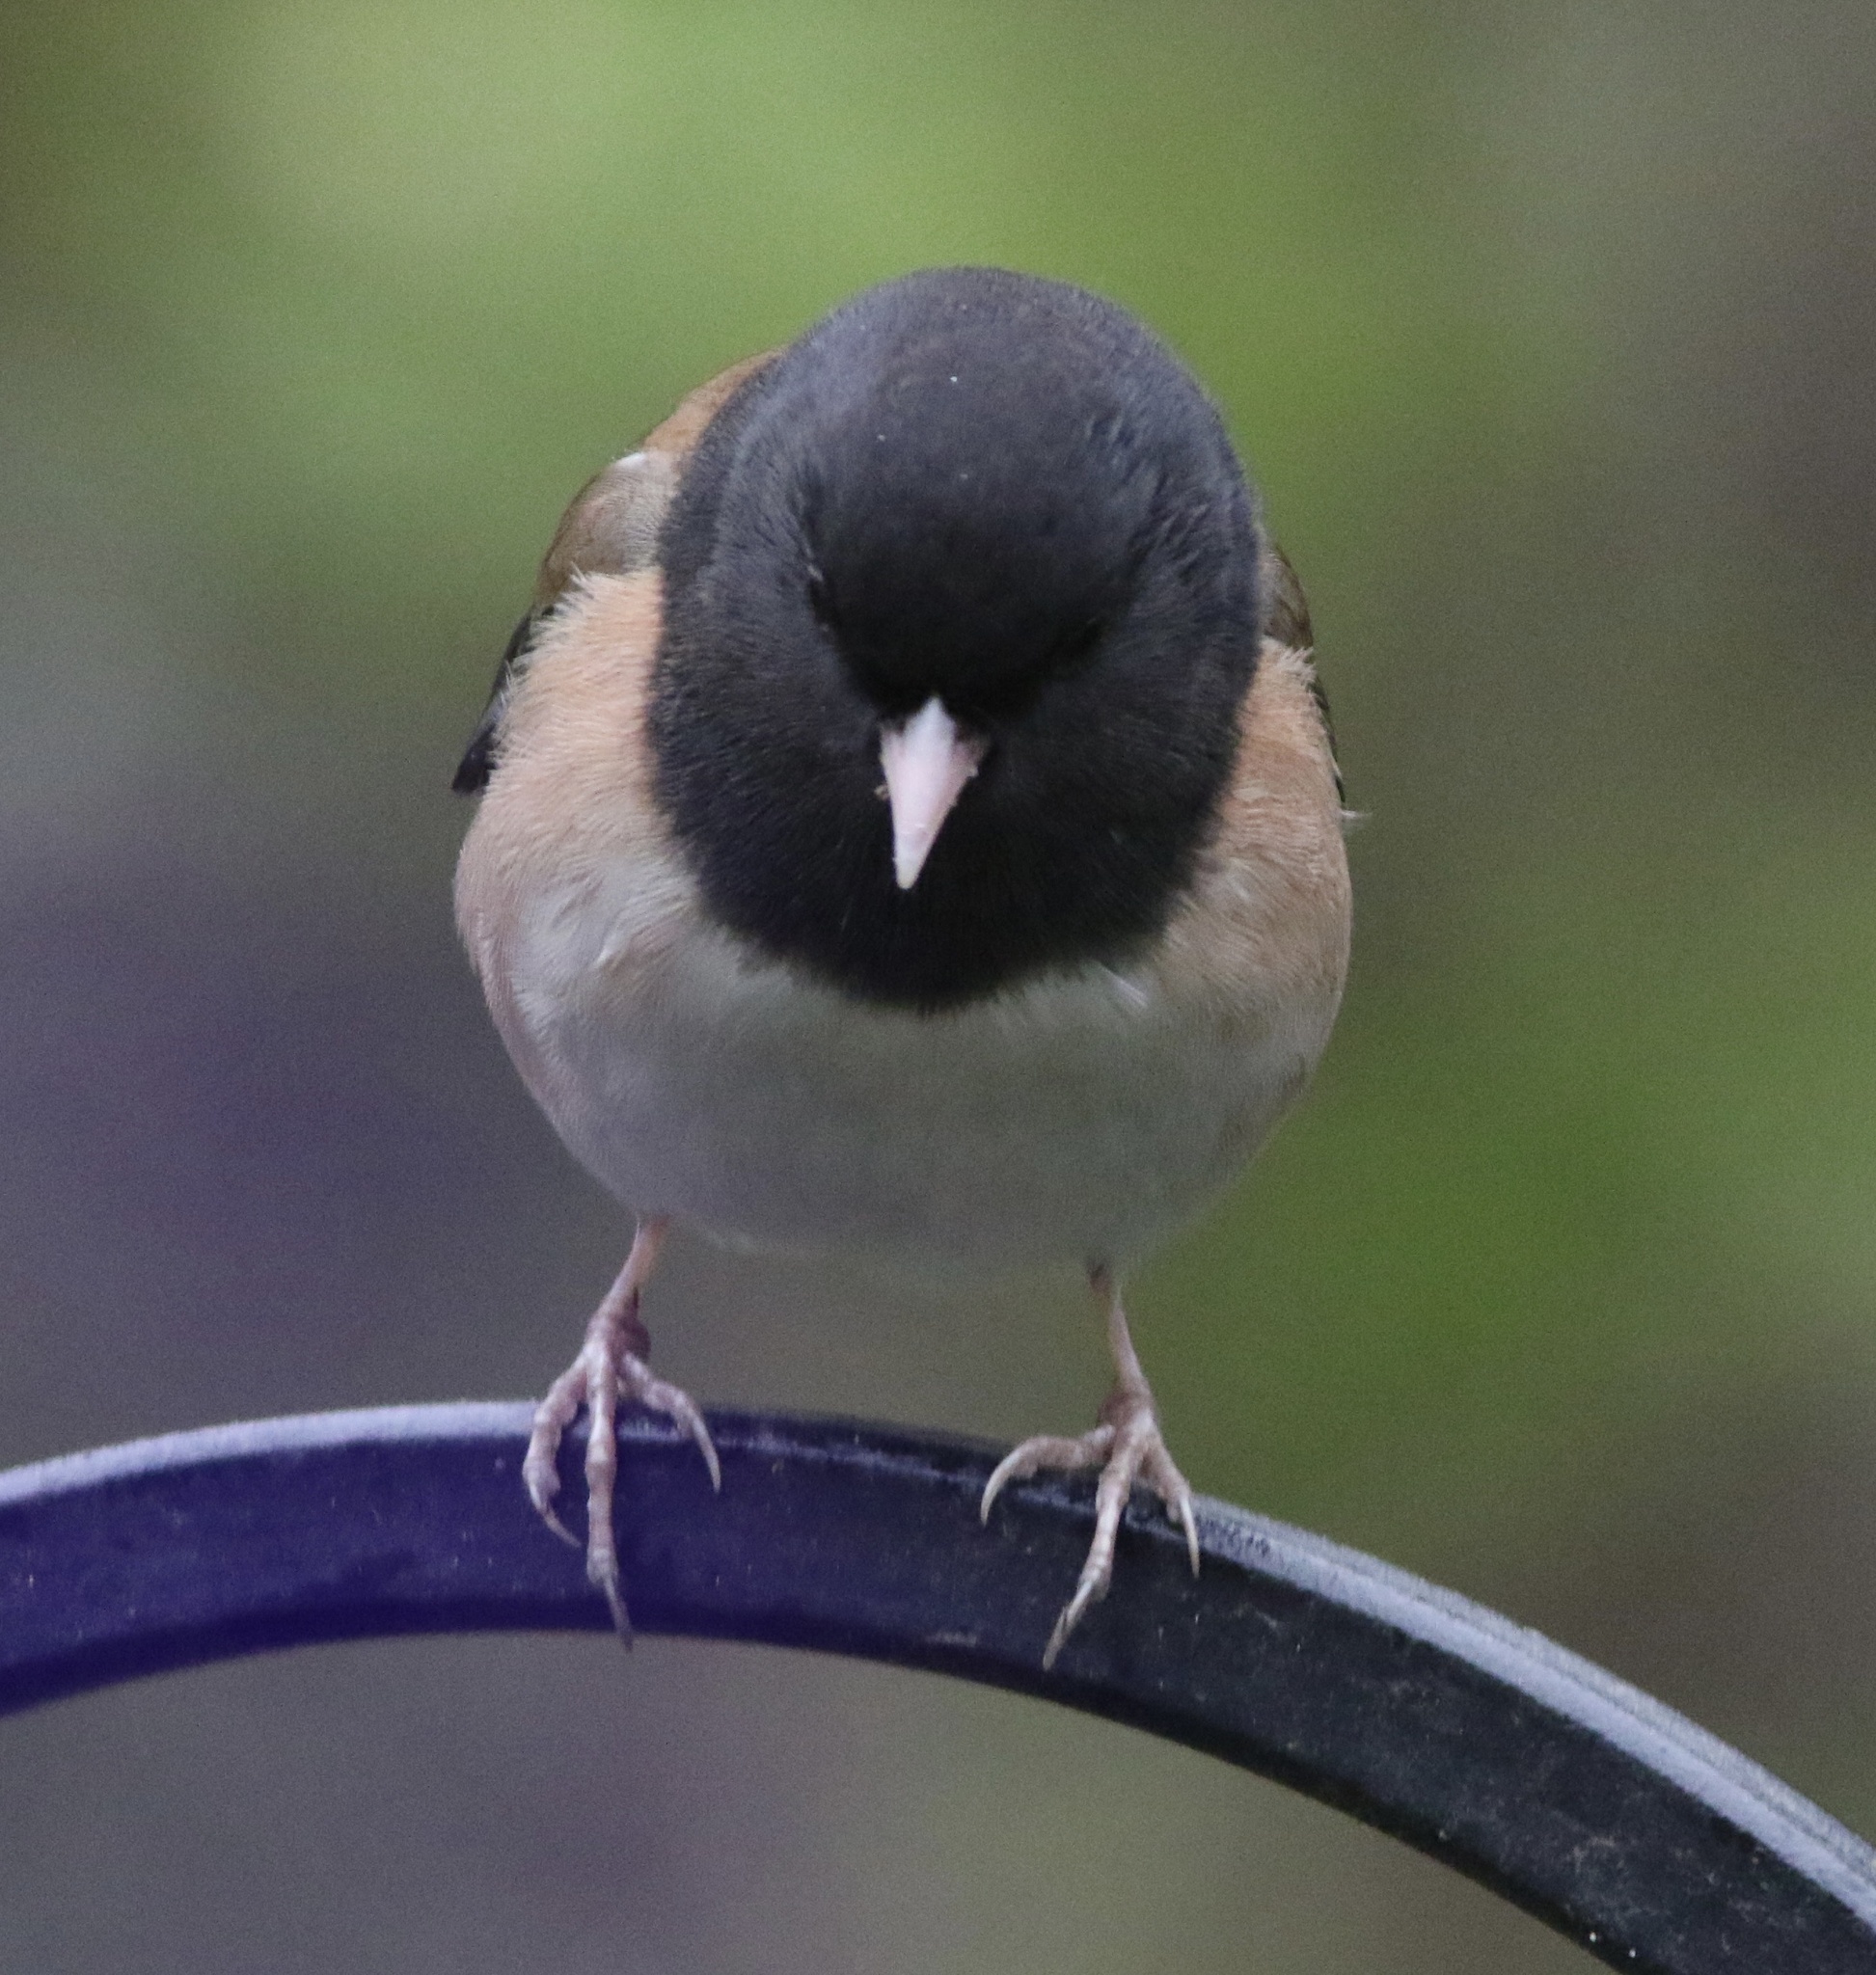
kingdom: Animalia
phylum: Chordata
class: Aves
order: Passeriformes
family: Passerellidae
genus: Junco
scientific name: Junco hyemalis
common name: Dark-eyed junco
